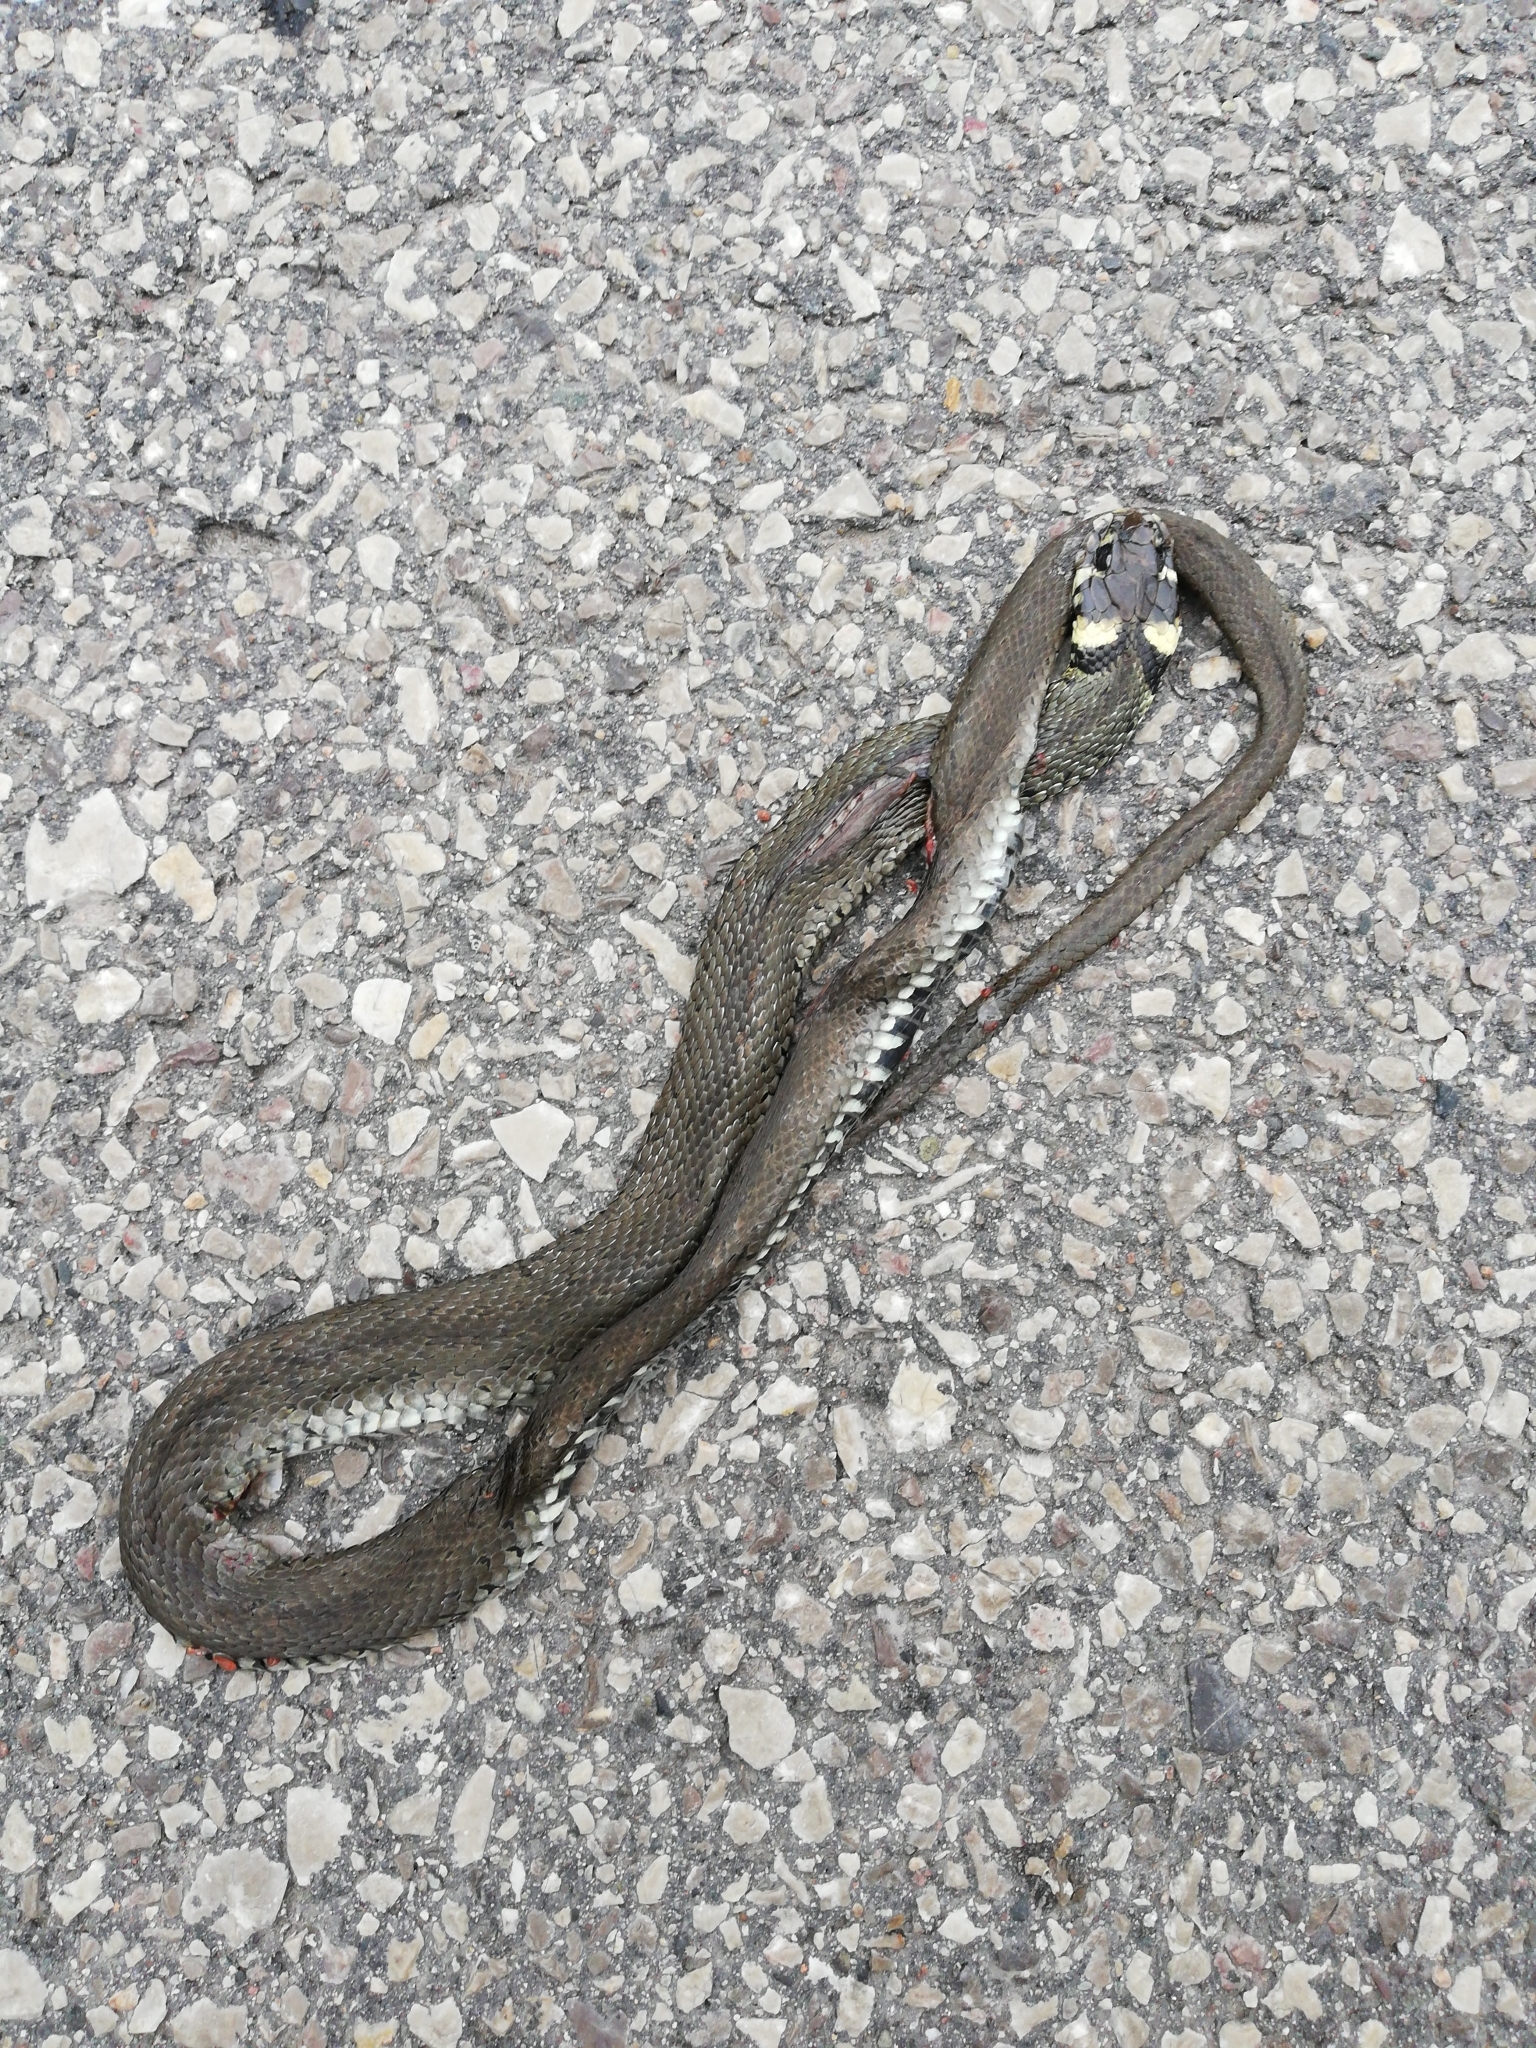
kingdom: Animalia
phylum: Chordata
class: Squamata
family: Colubridae
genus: Natrix
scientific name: Natrix natrix
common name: Grass snake
